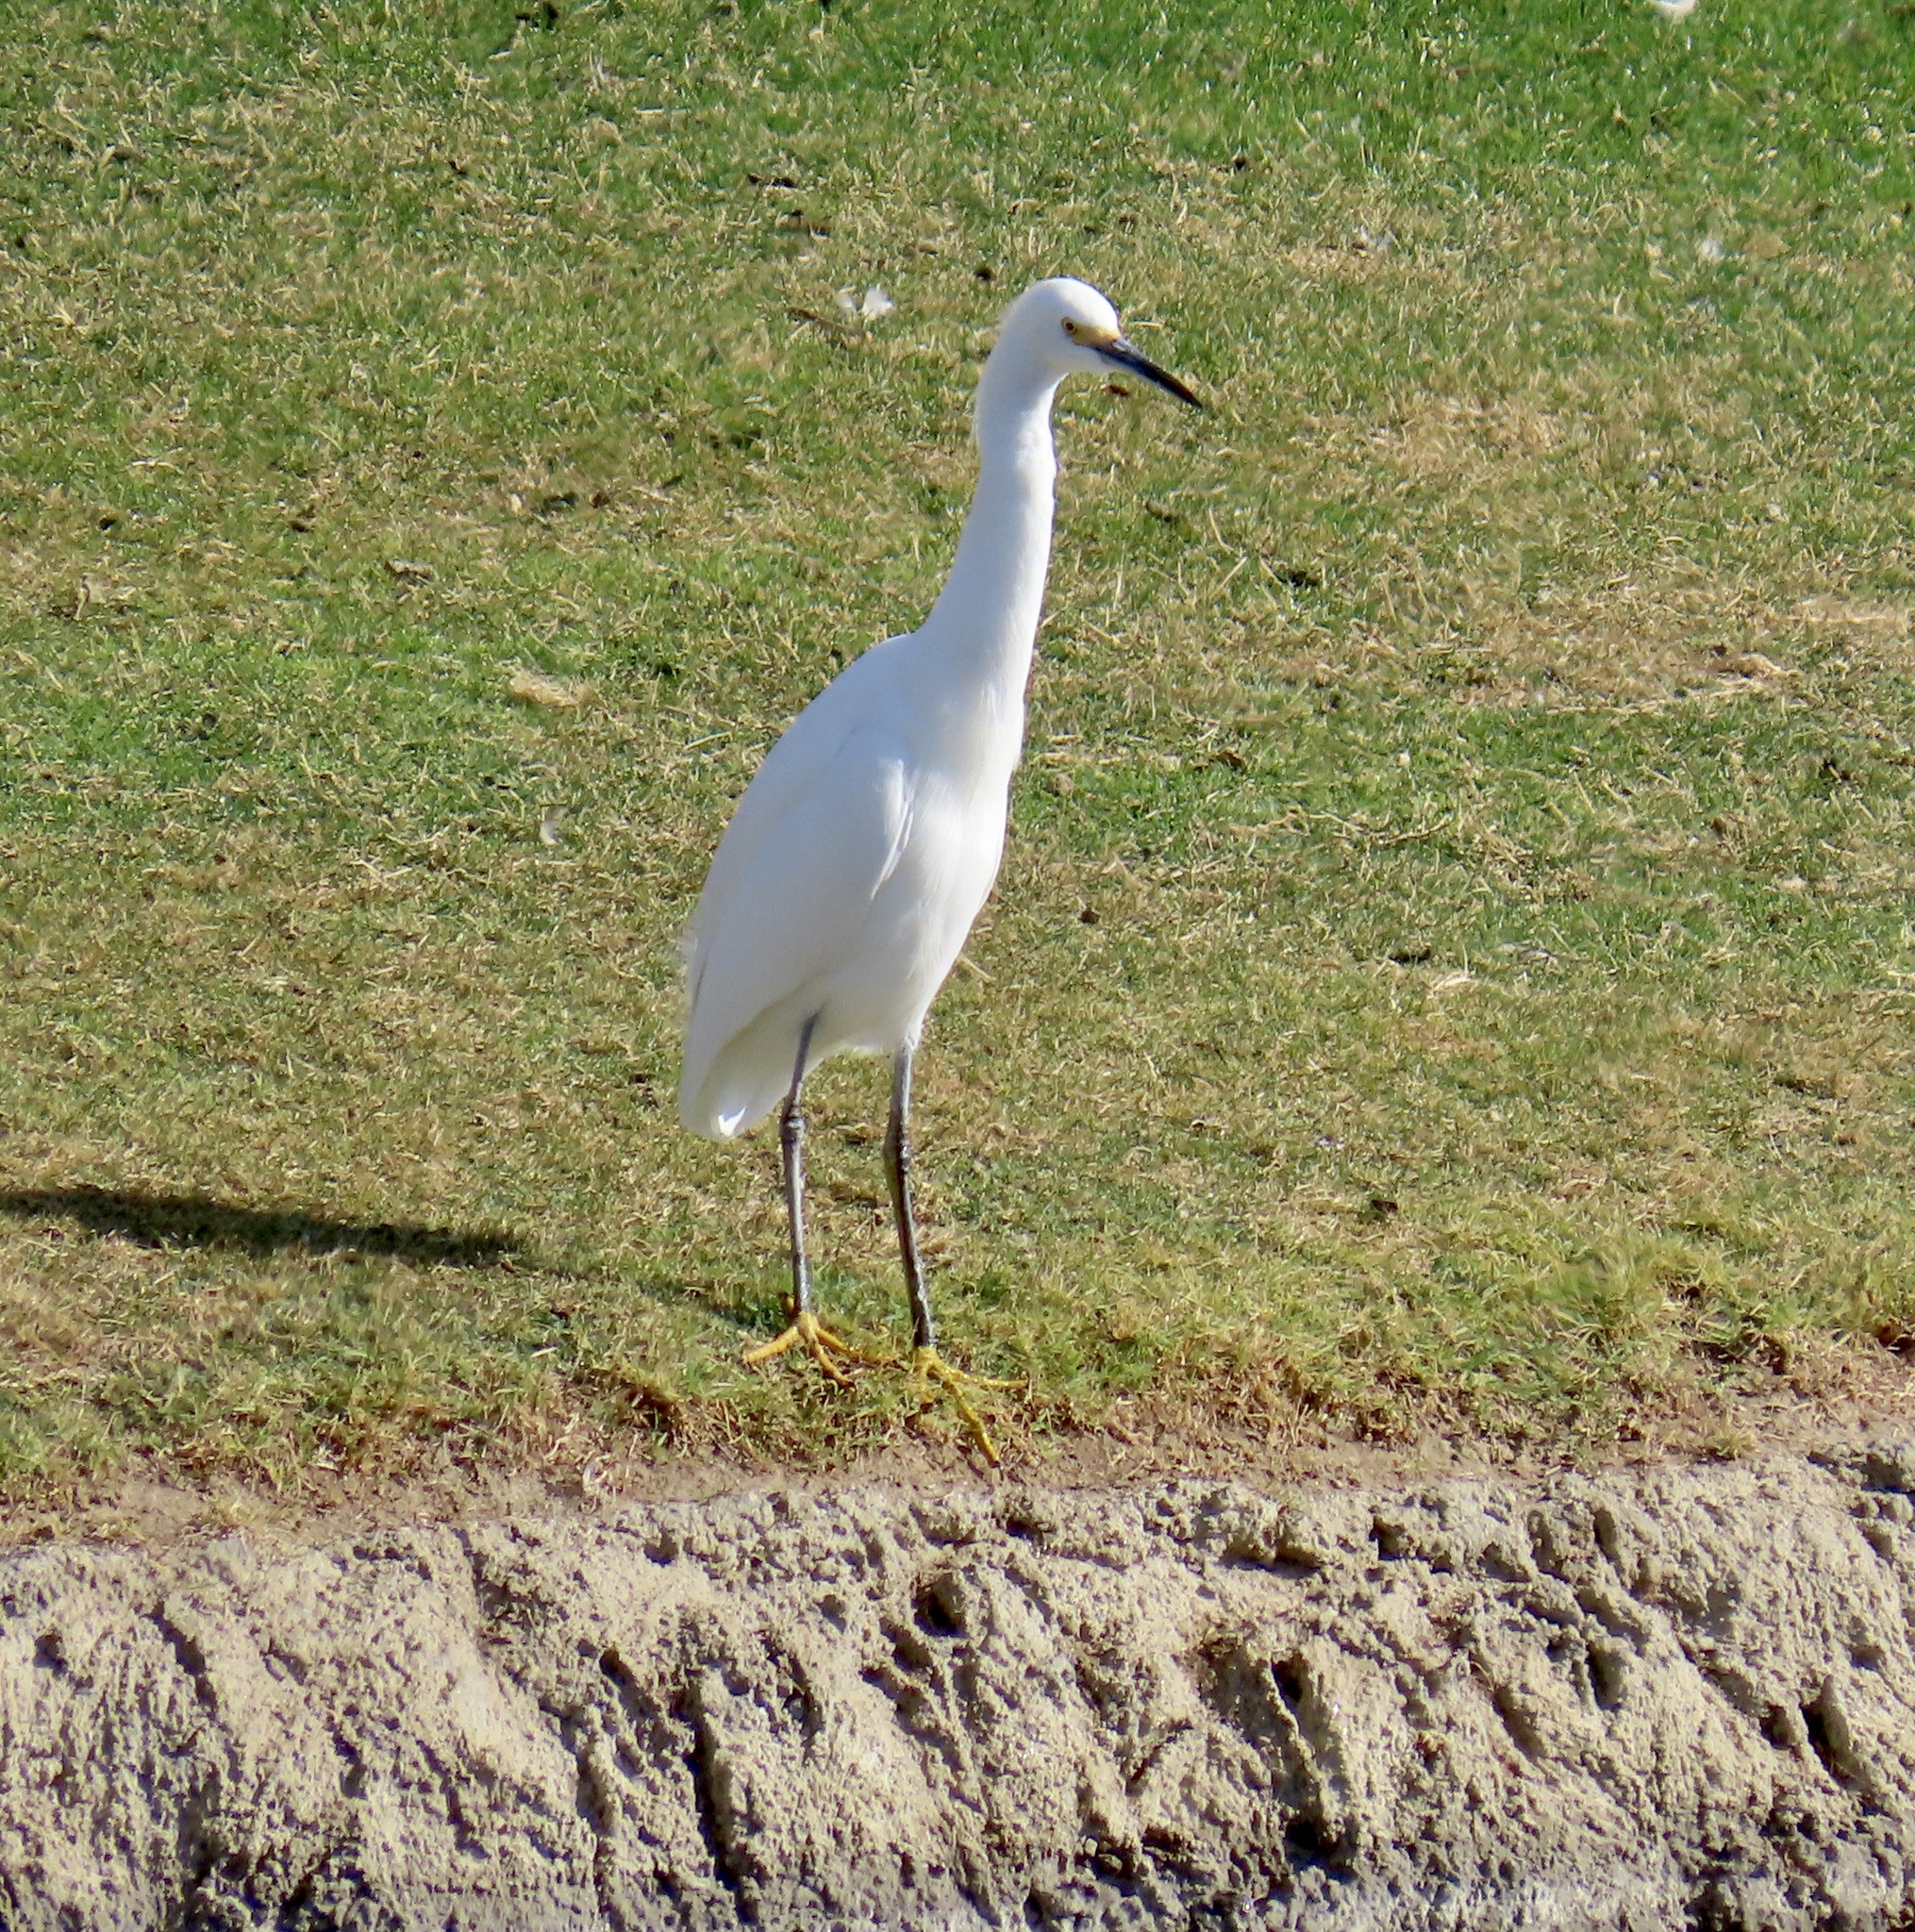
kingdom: Animalia
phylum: Chordata
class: Aves
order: Pelecaniformes
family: Ardeidae
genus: Egretta
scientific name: Egretta thula
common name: Snowy egret
